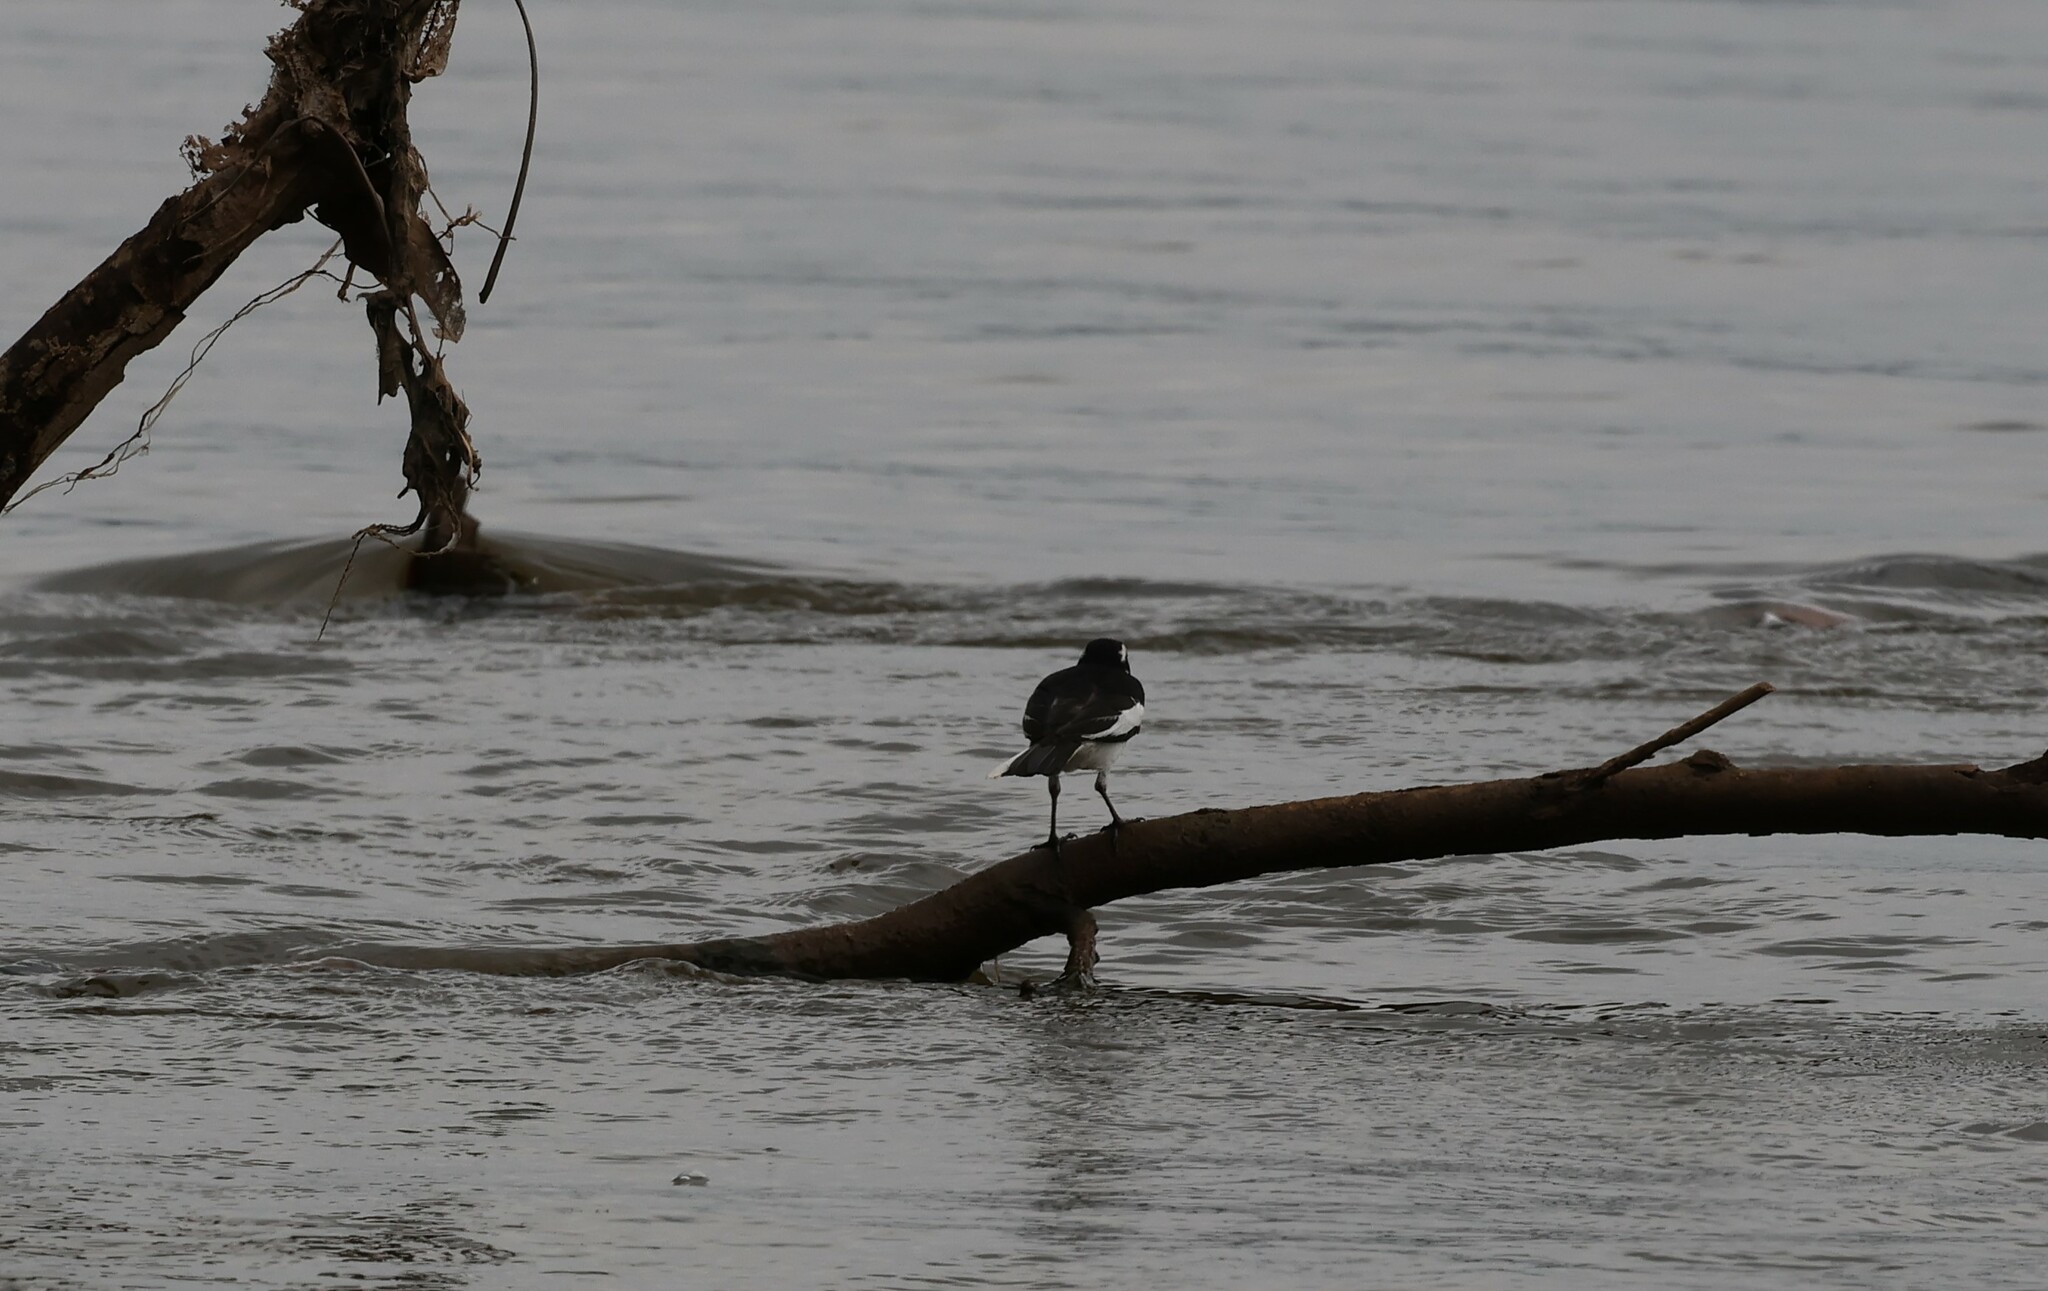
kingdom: Animalia
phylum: Chordata
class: Aves
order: Passeriformes
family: Motacillidae
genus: Motacilla
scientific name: Motacilla aguimp
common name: African pied wagtail
